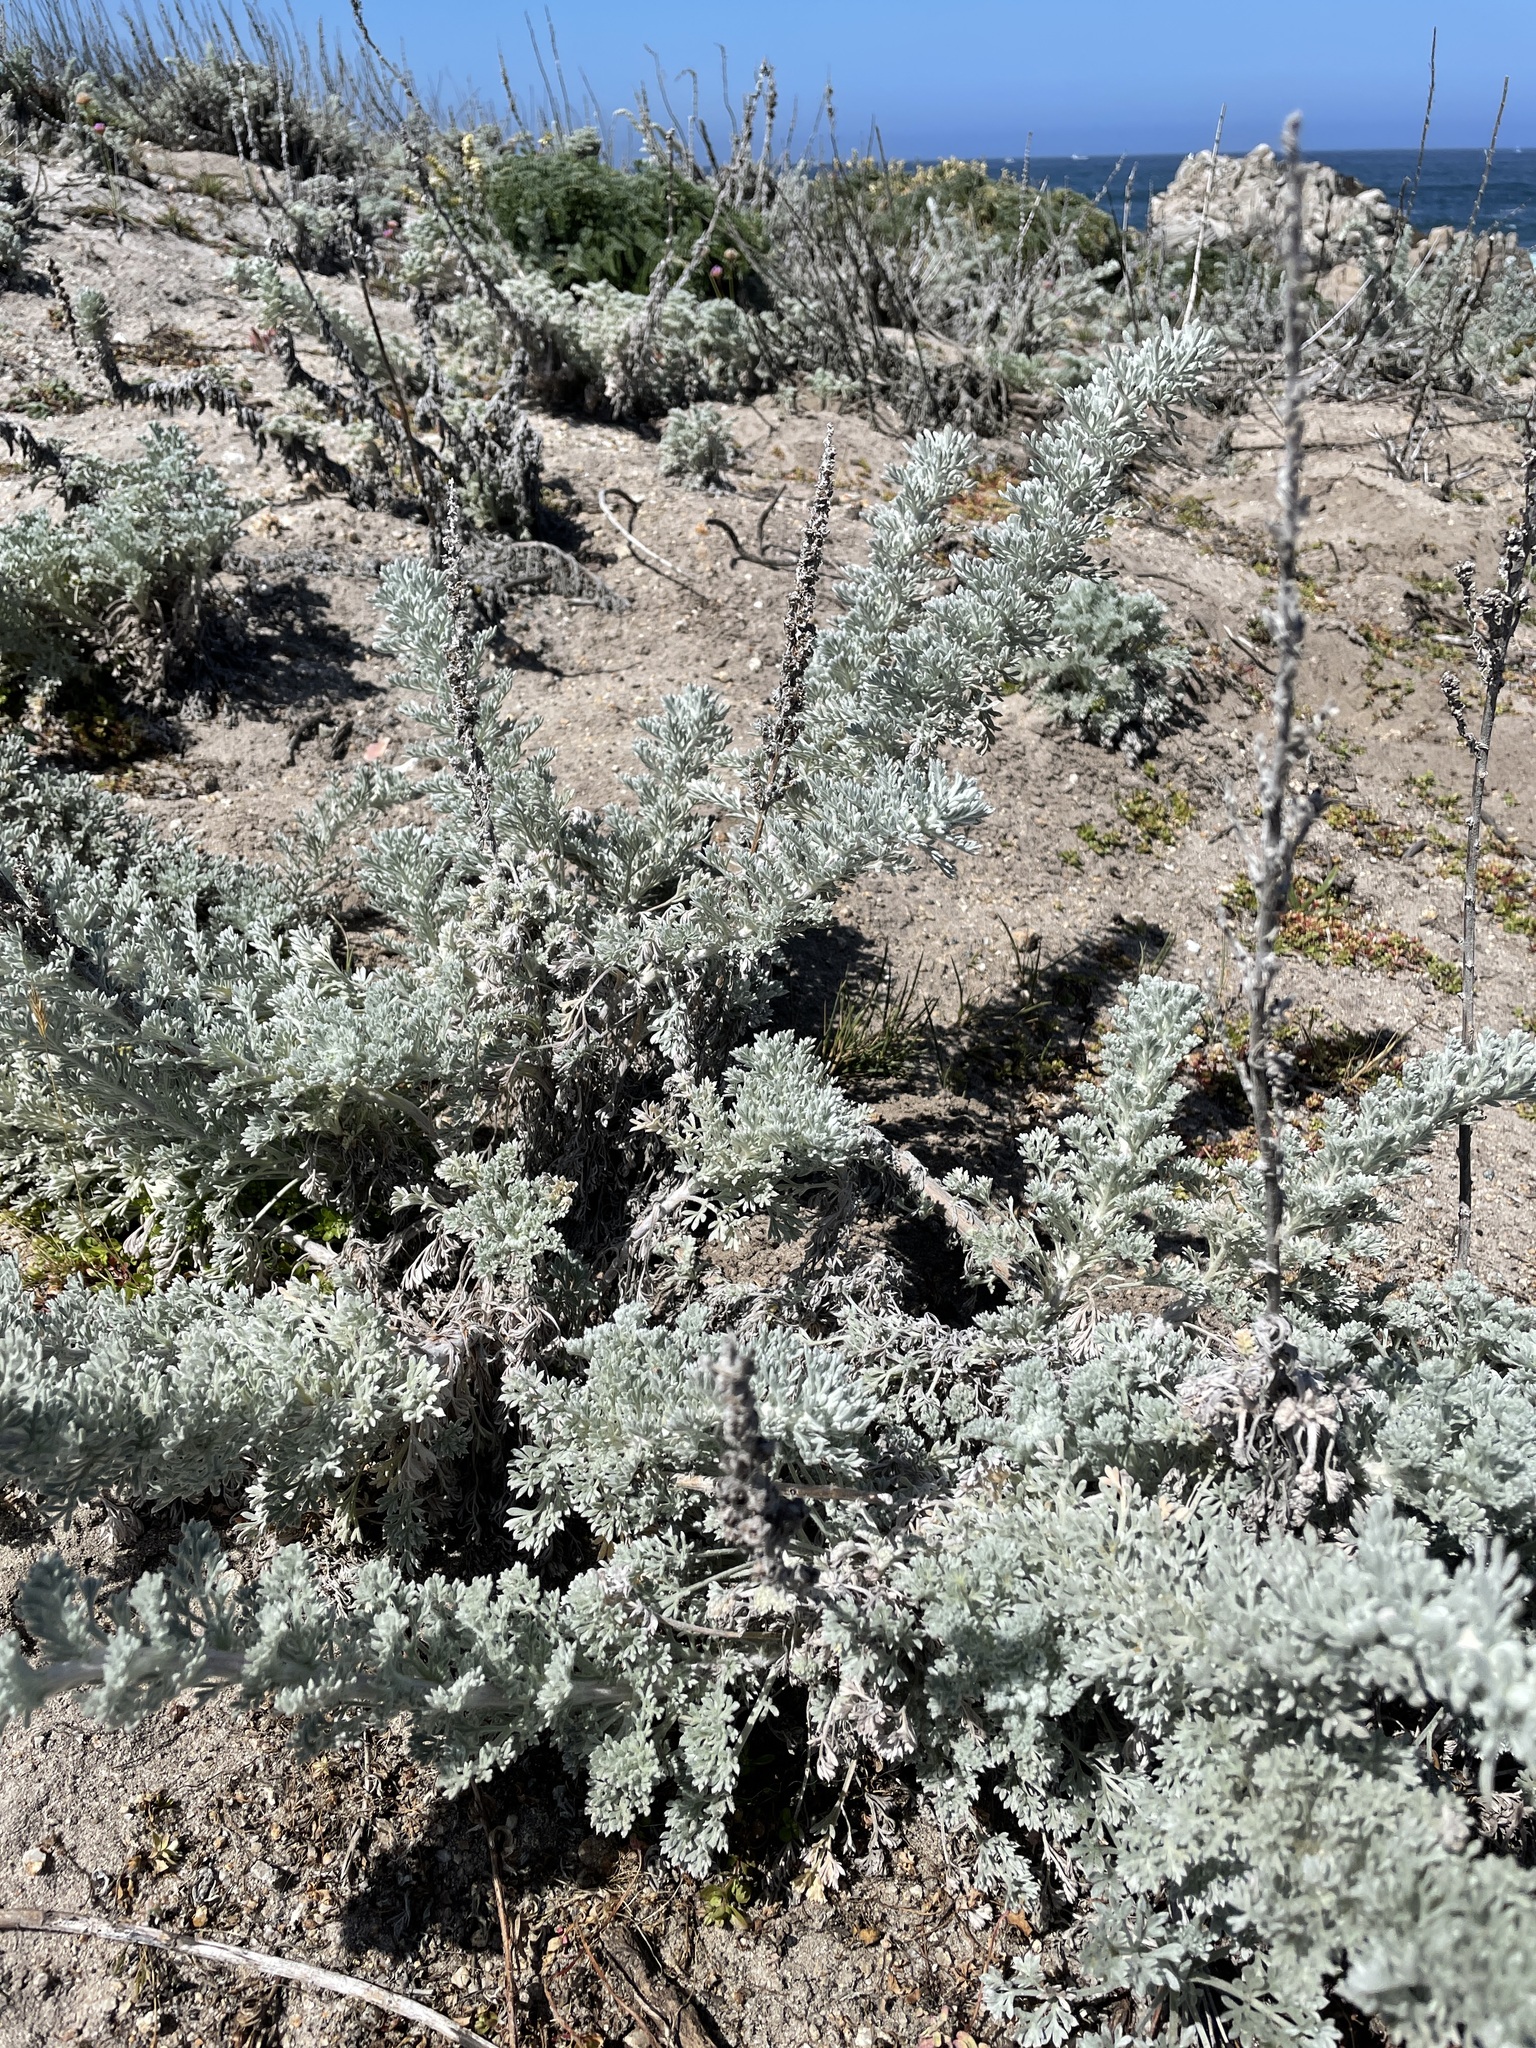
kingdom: Plantae
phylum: Tracheophyta
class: Magnoliopsida
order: Asterales
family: Asteraceae
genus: Artemisia
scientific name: Artemisia pycnocephala
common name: Coastal sagewort
